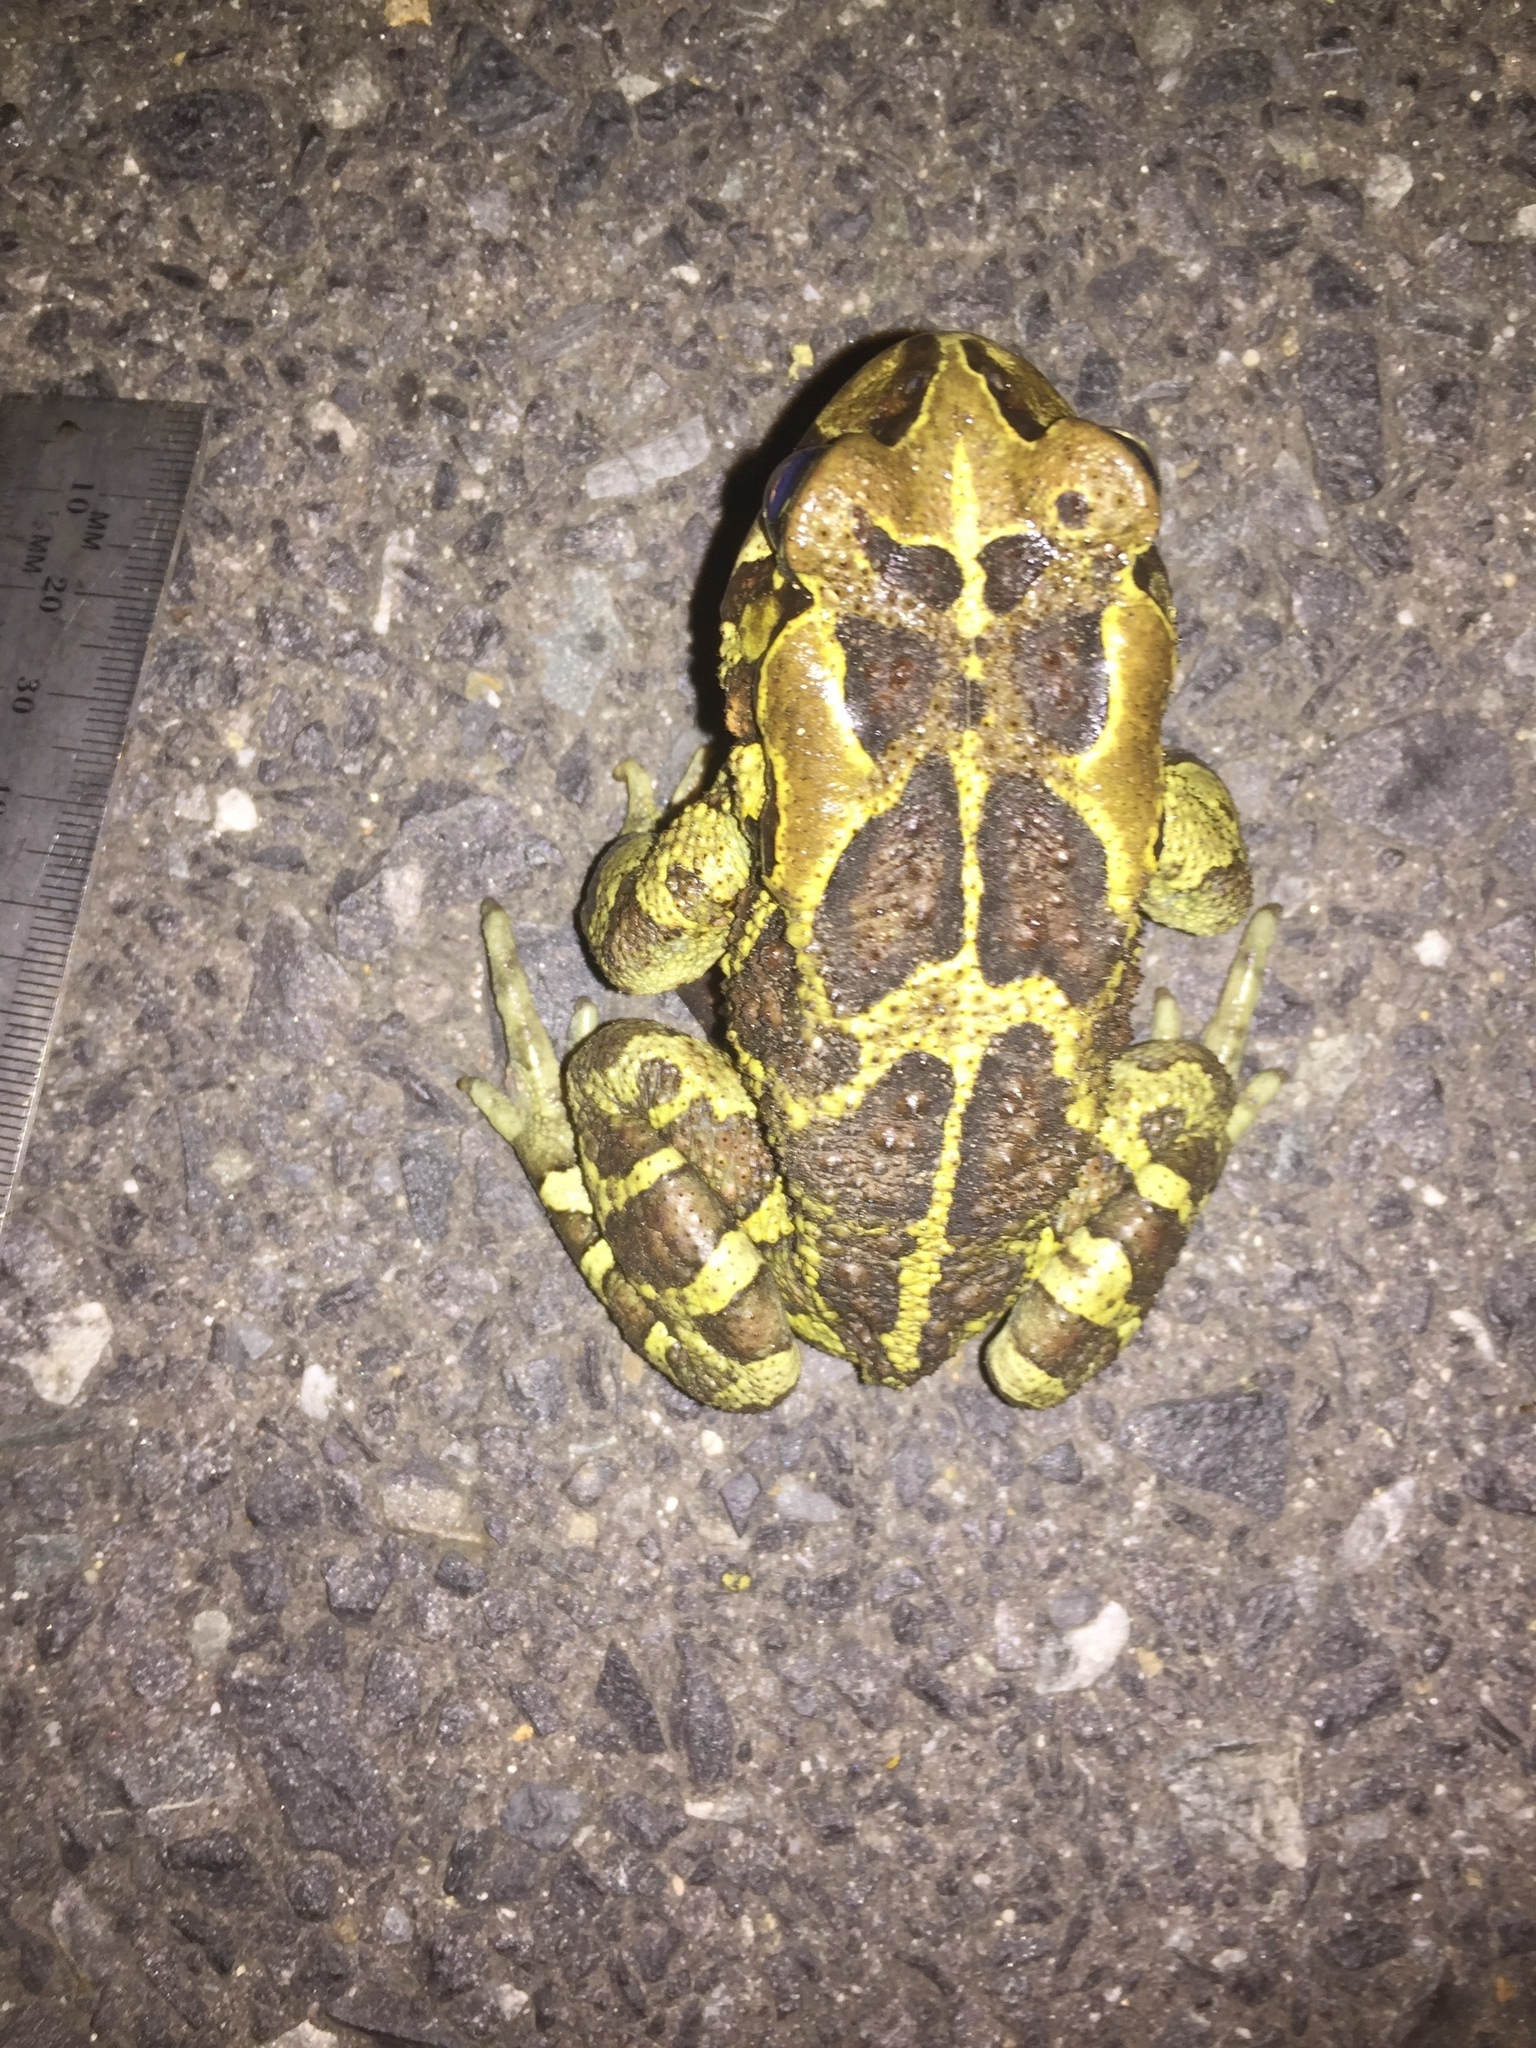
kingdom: Animalia
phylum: Chordata
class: Amphibia
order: Anura
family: Bufonidae
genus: Sclerophrys
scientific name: Sclerophrys pantherina
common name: Panther toad
